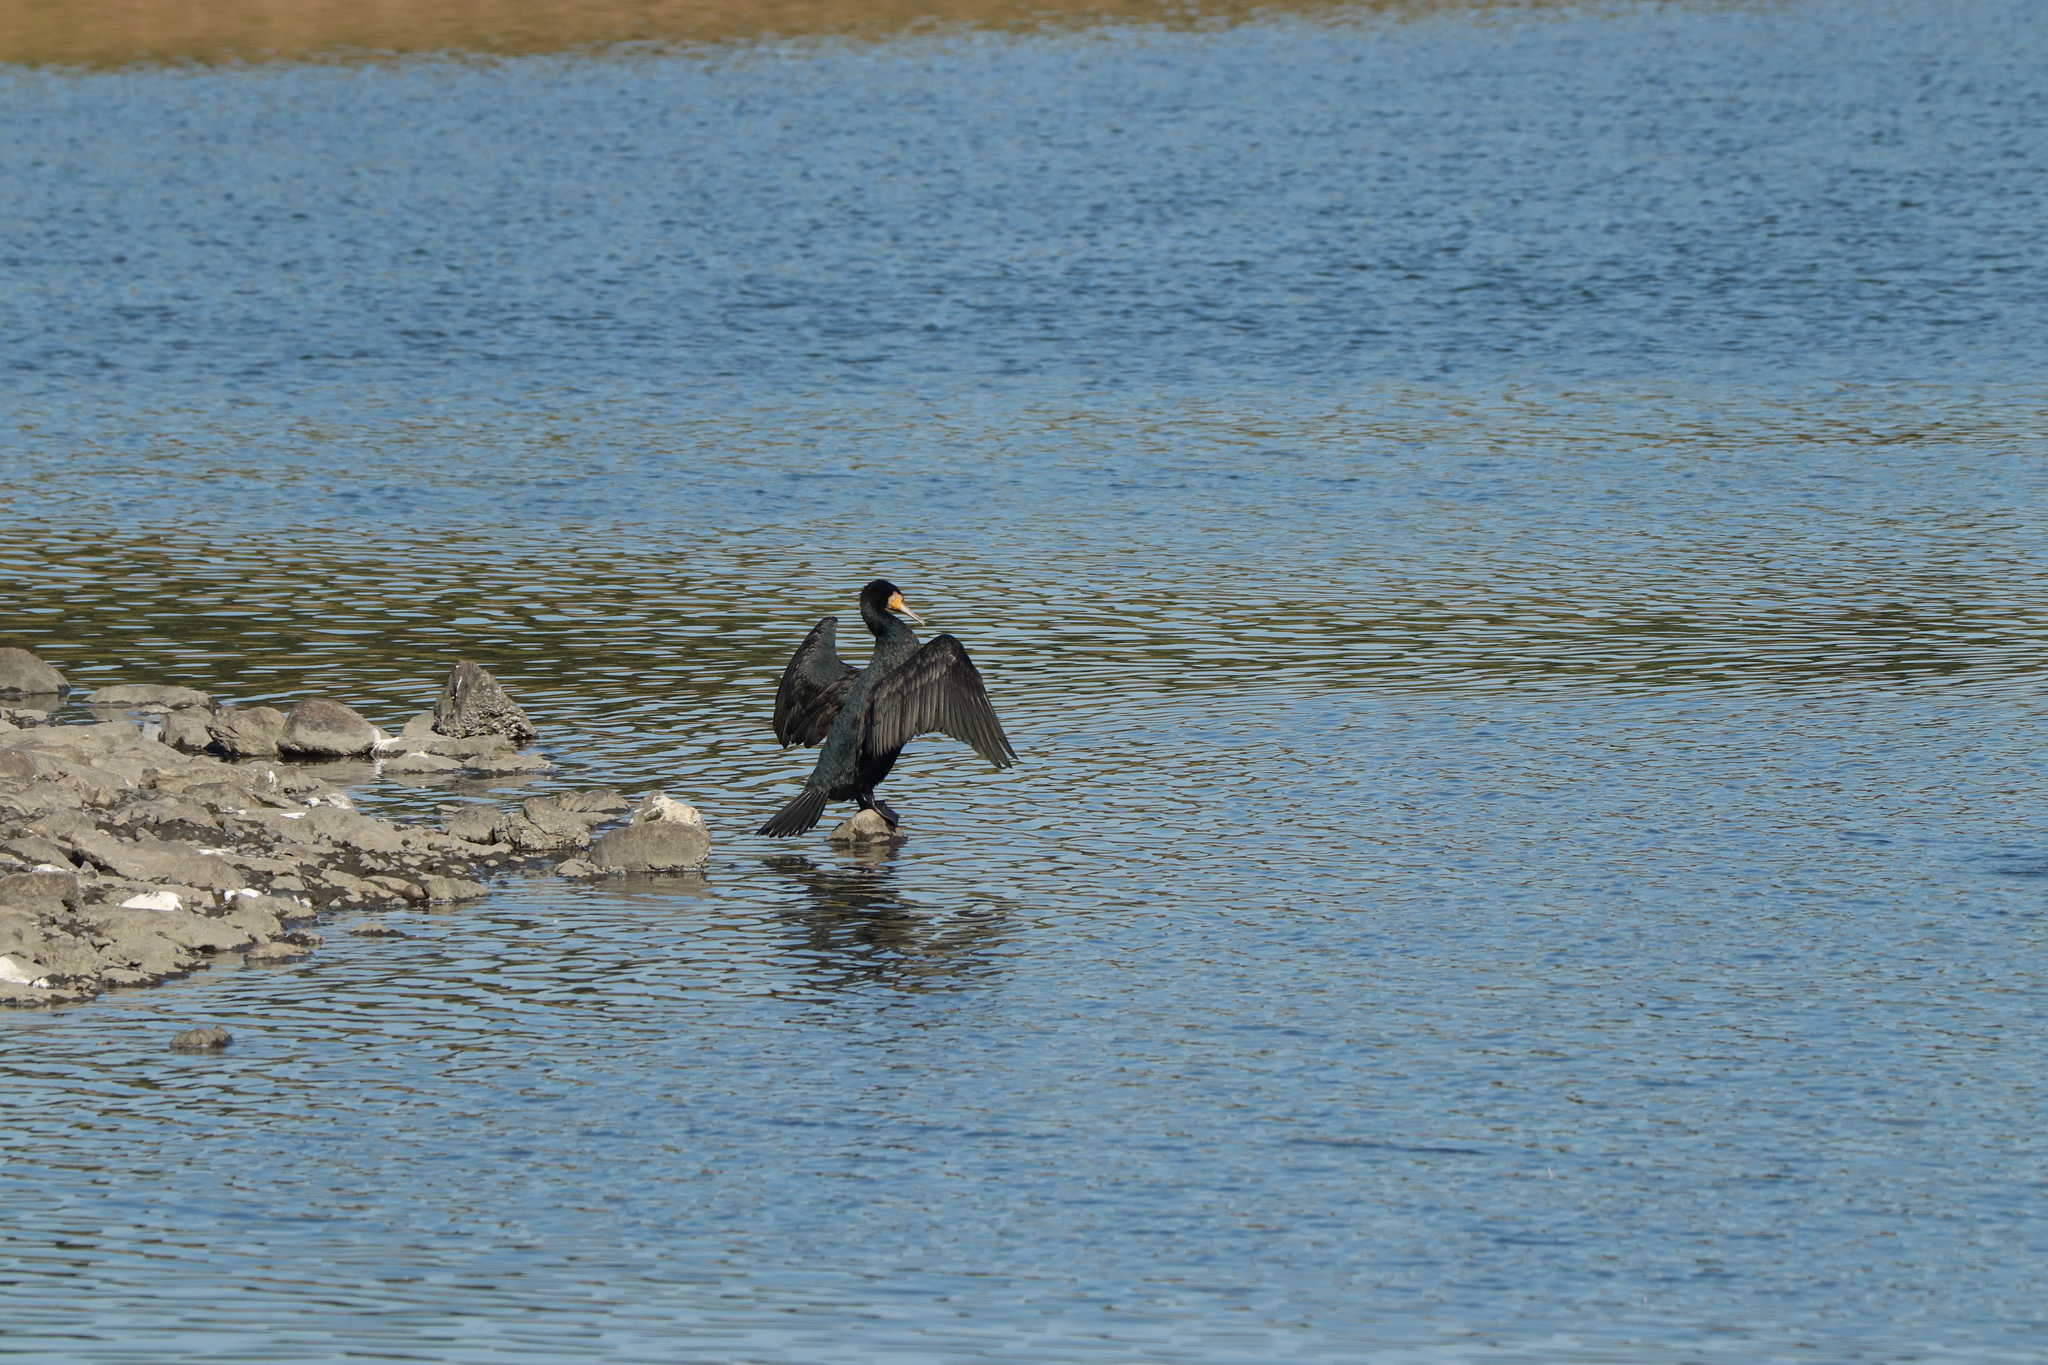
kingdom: Animalia
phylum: Chordata
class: Aves
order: Suliformes
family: Phalacrocoracidae
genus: Phalacrocorax
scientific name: Phalacrocorax carbo
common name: Great cormorant
